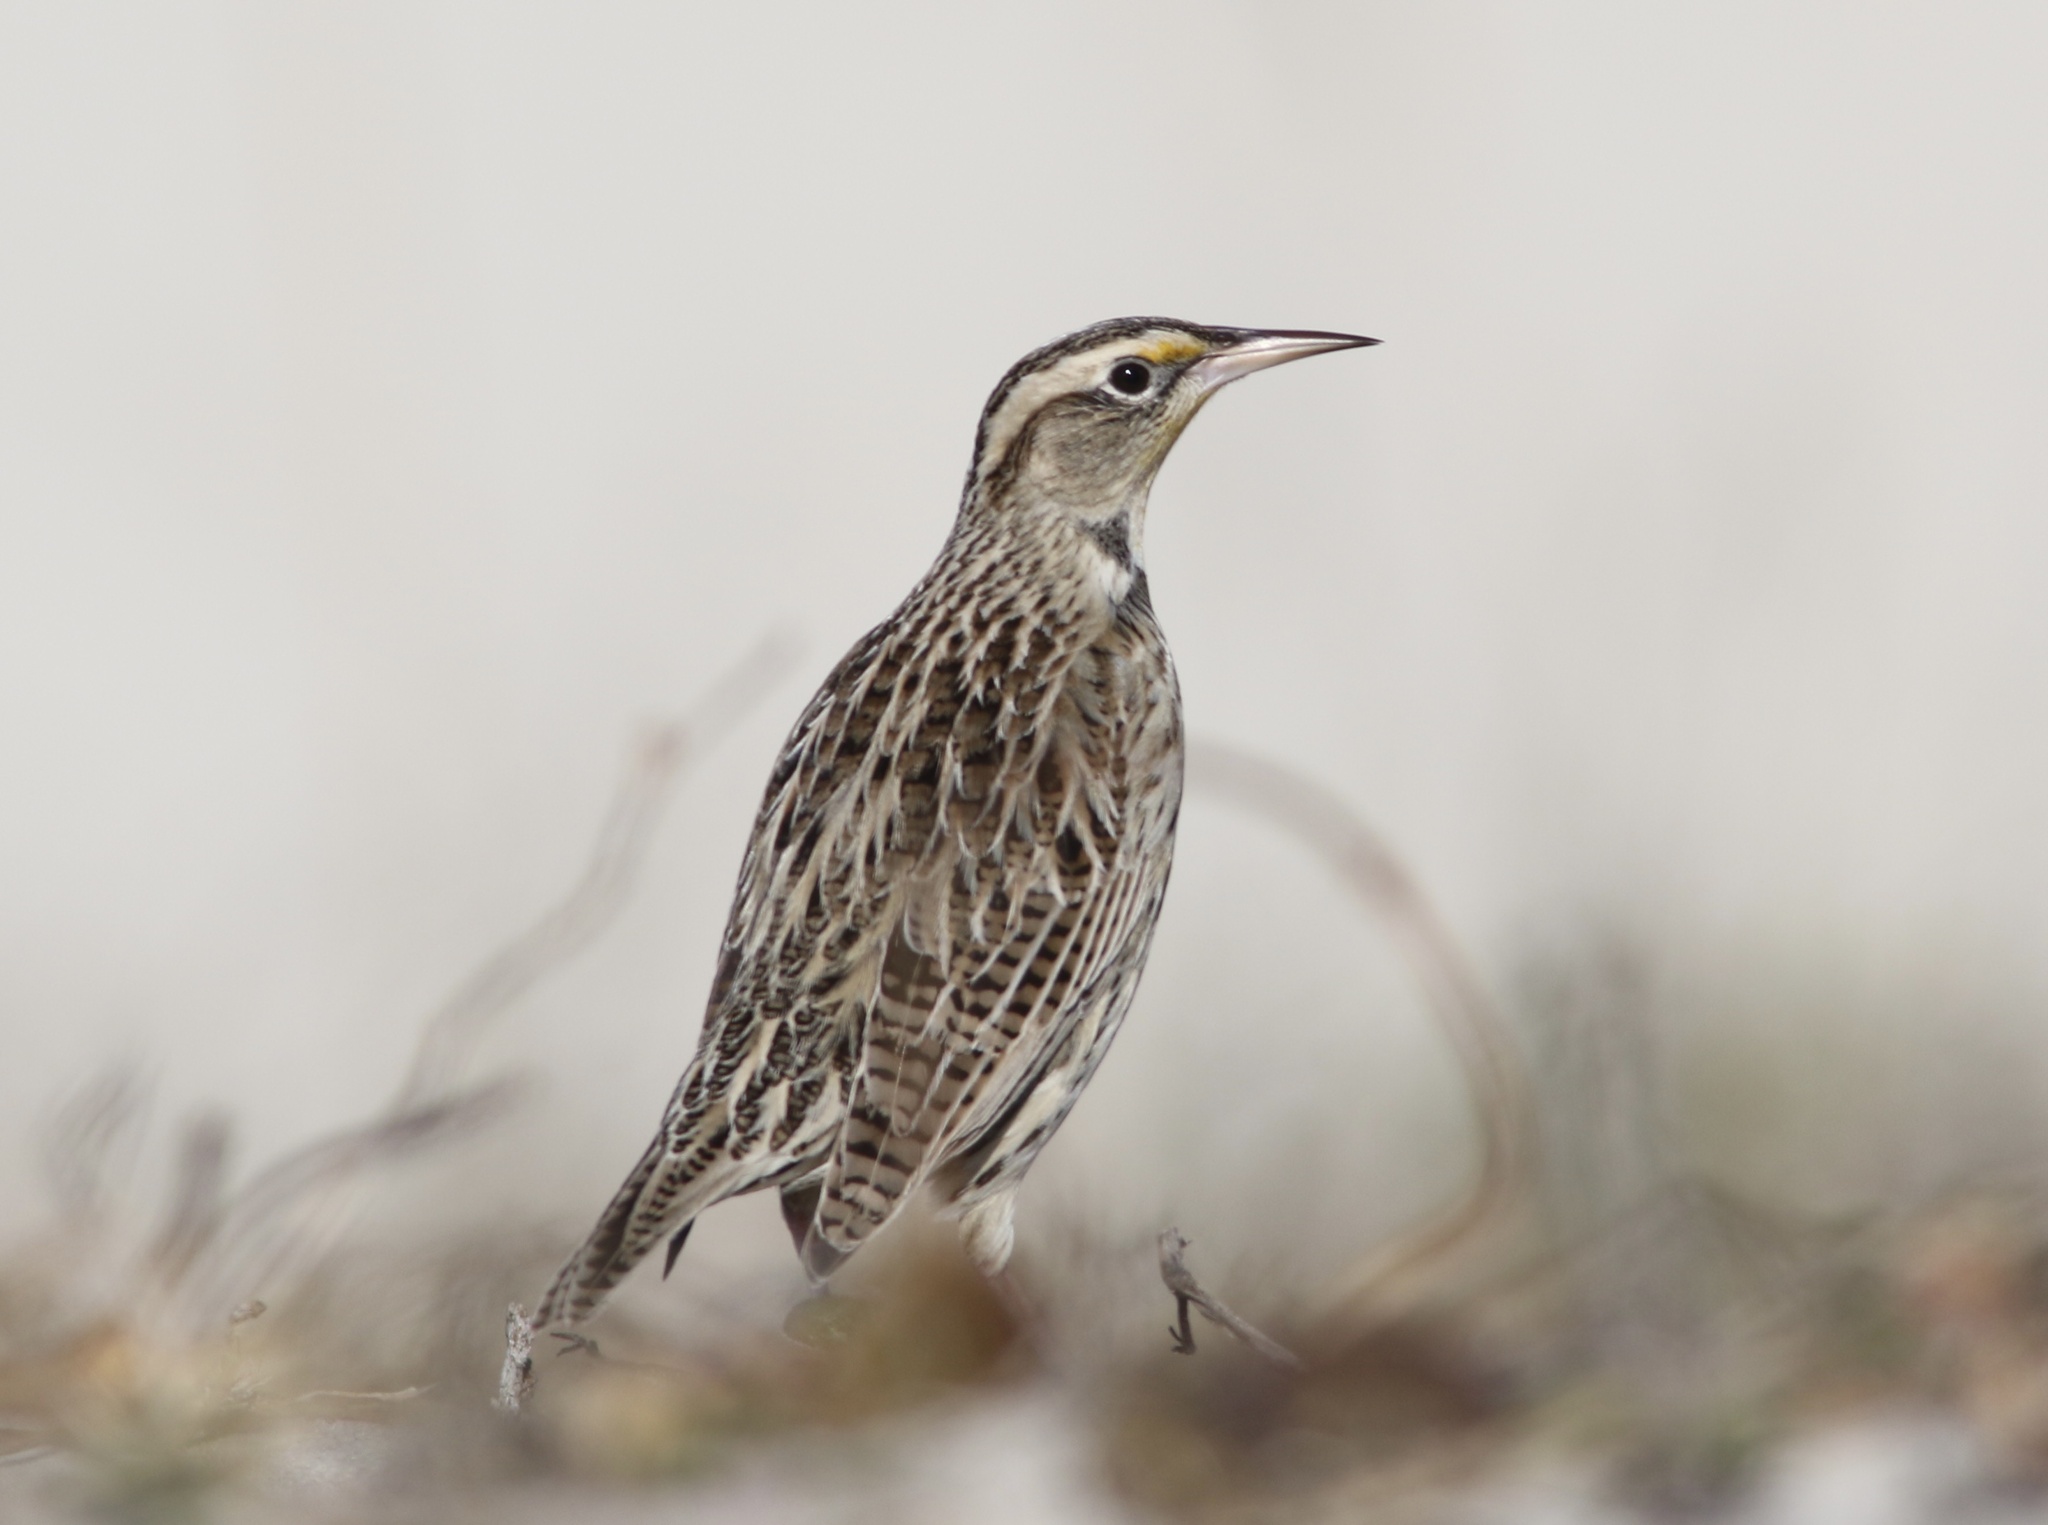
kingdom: Animalia
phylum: Chordata
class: Aves
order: Passeriformes
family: Icteridae
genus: Sturnella
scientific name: Sturnella neglecta
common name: Western meadowlark
